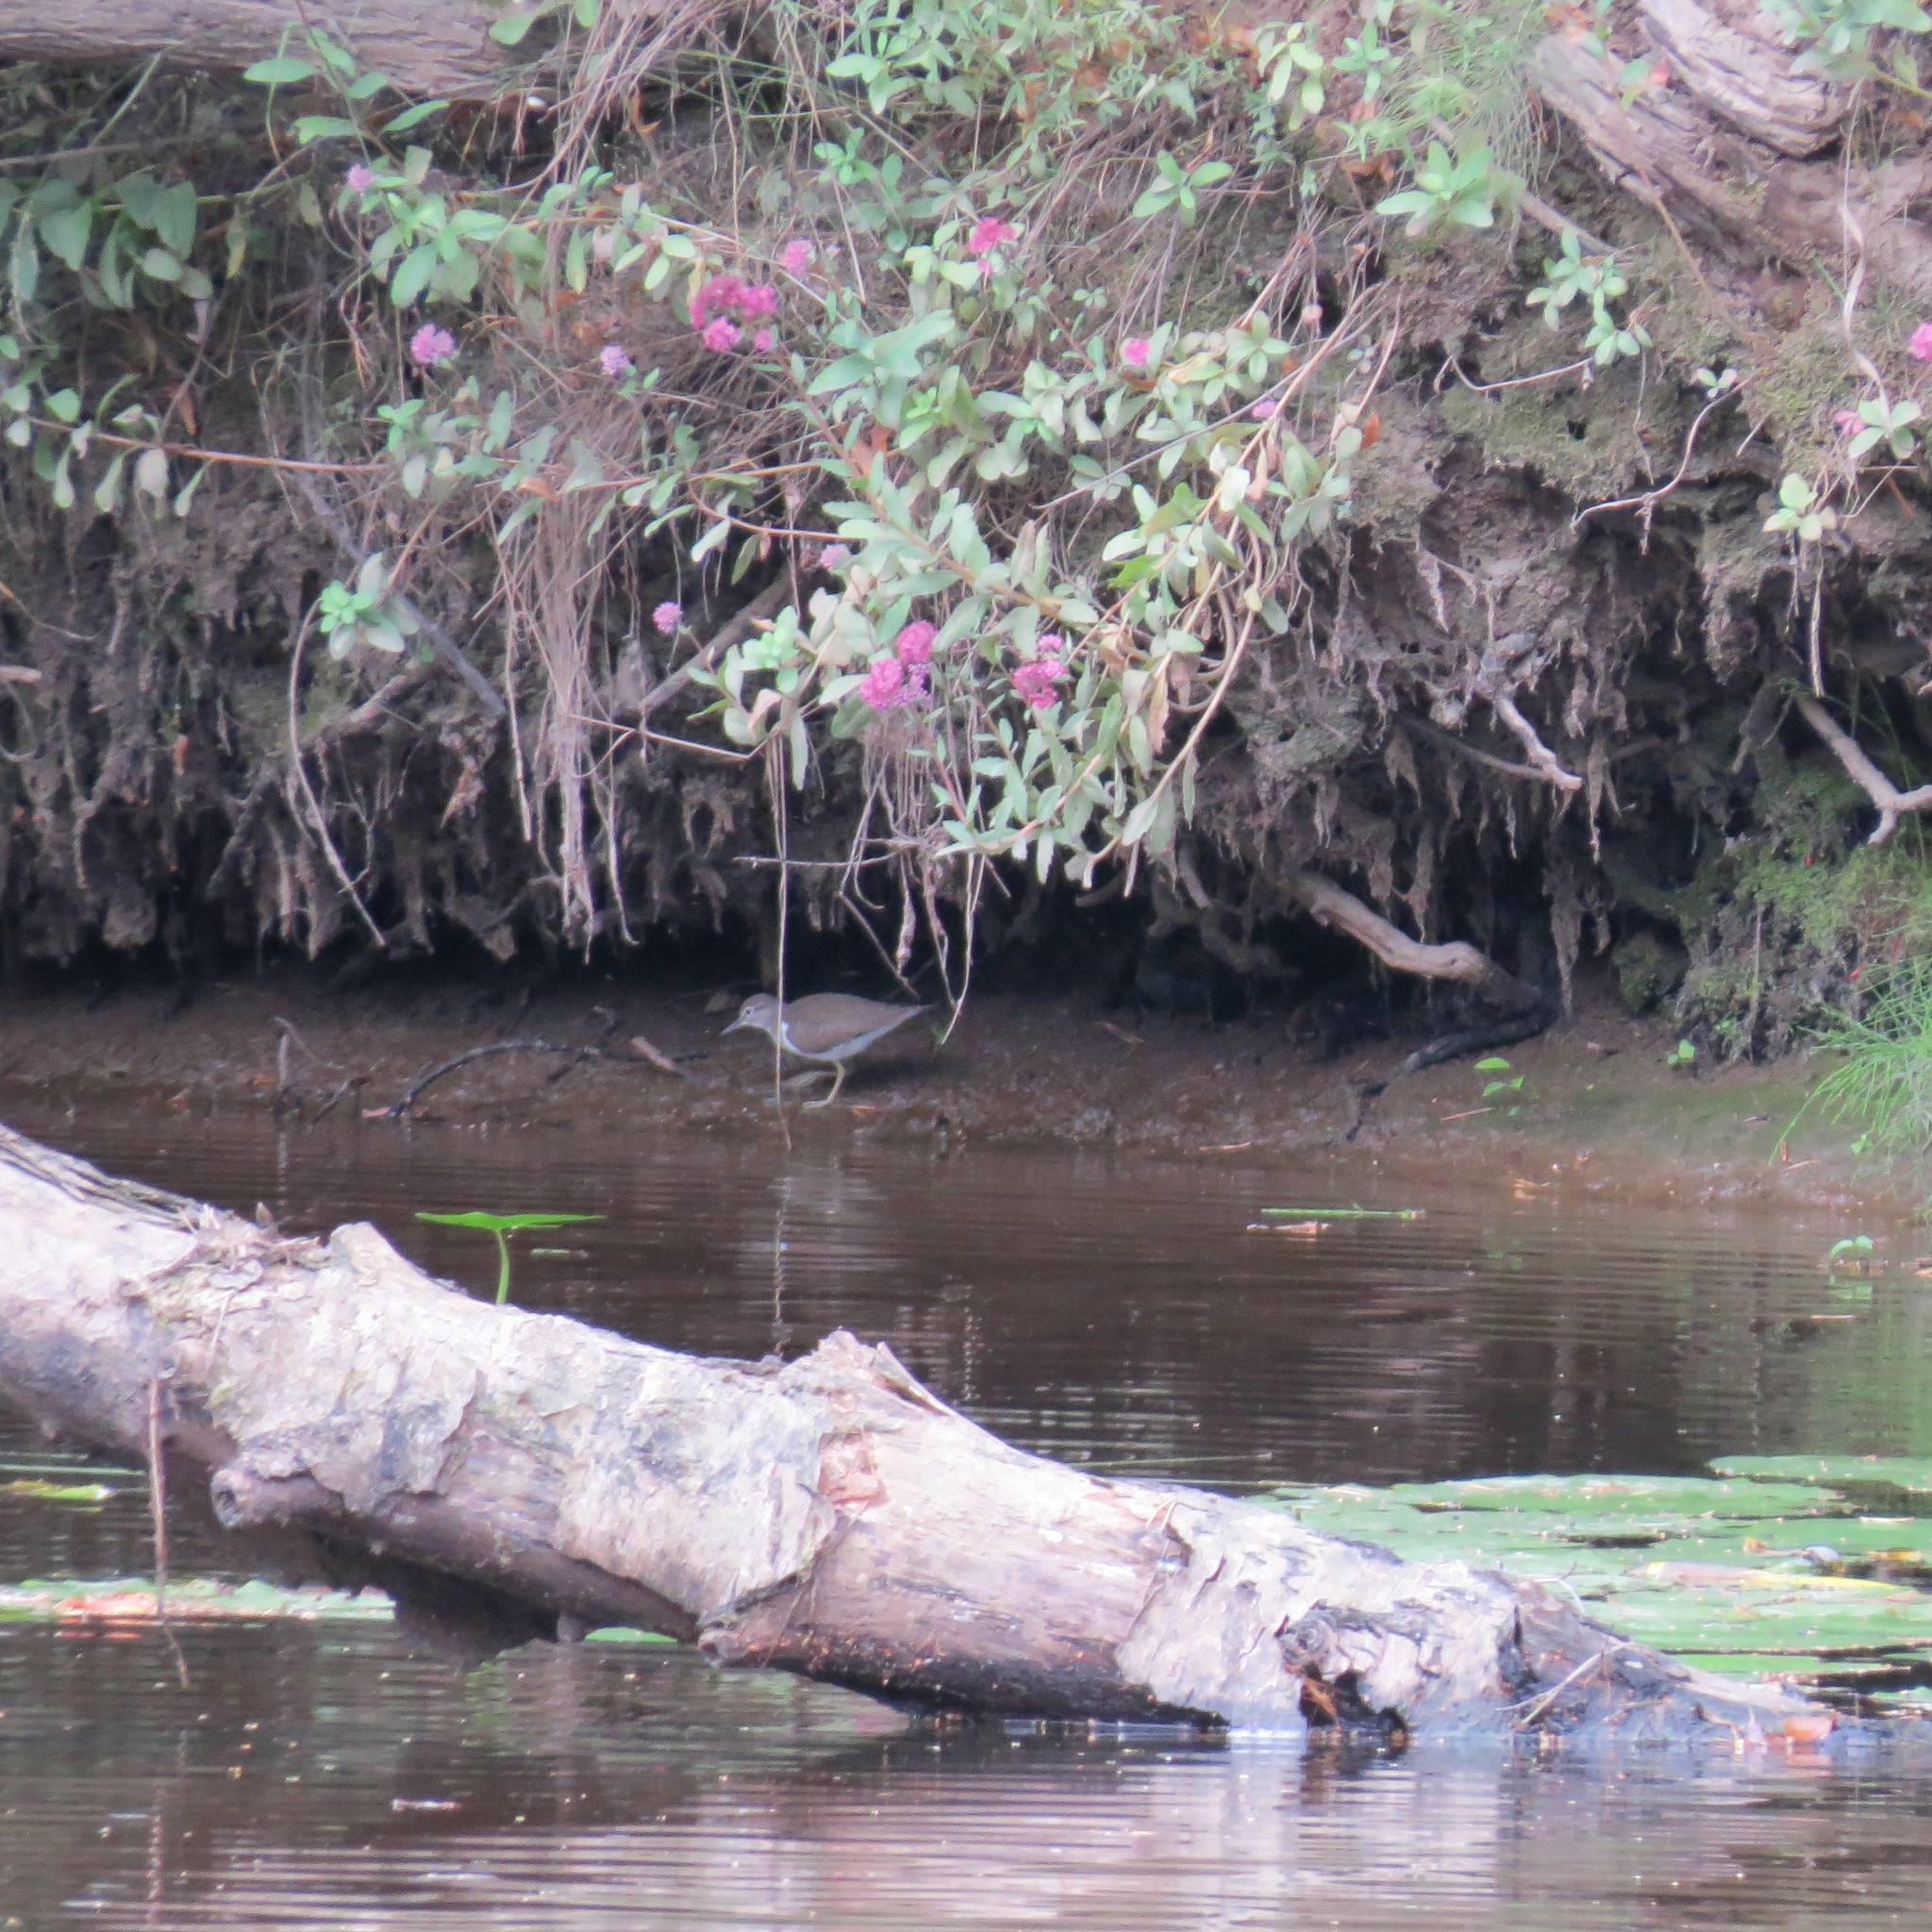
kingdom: Animalia
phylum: Chordata
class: Aves
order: Charadriiformes
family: Scolopacidae
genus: Actitis
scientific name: Actitis hypoleucos
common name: Common sandpiper
